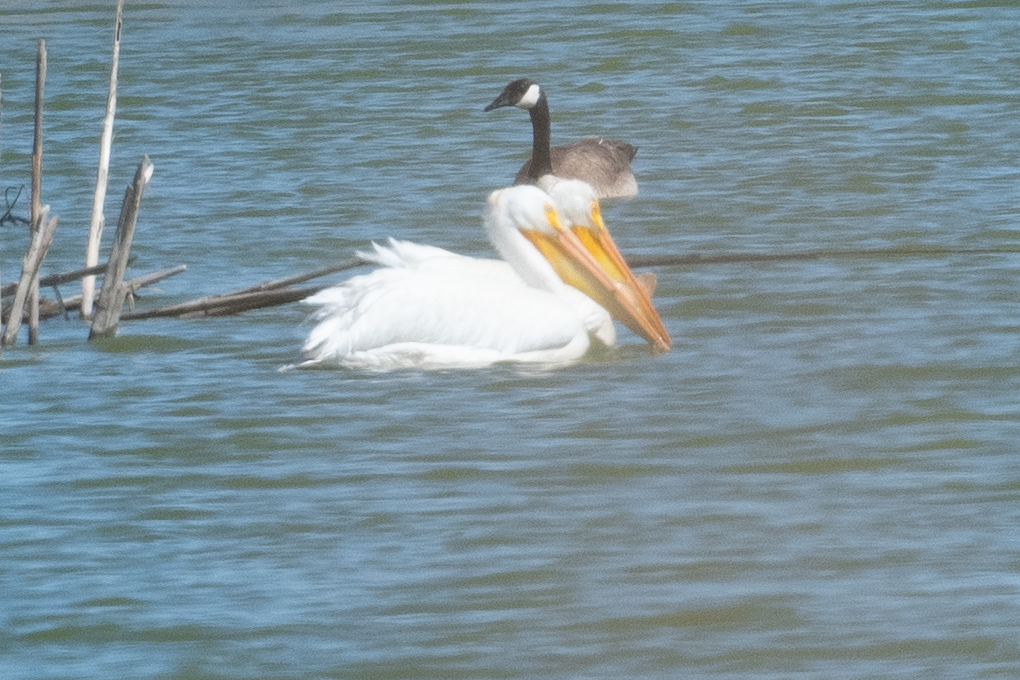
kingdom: Animalia
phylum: Chordata
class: Aves
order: Pelecaniformes
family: Pelecanidae
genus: Pelecanus
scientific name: Pelecanus erythrorhynchos
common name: American white pelican
